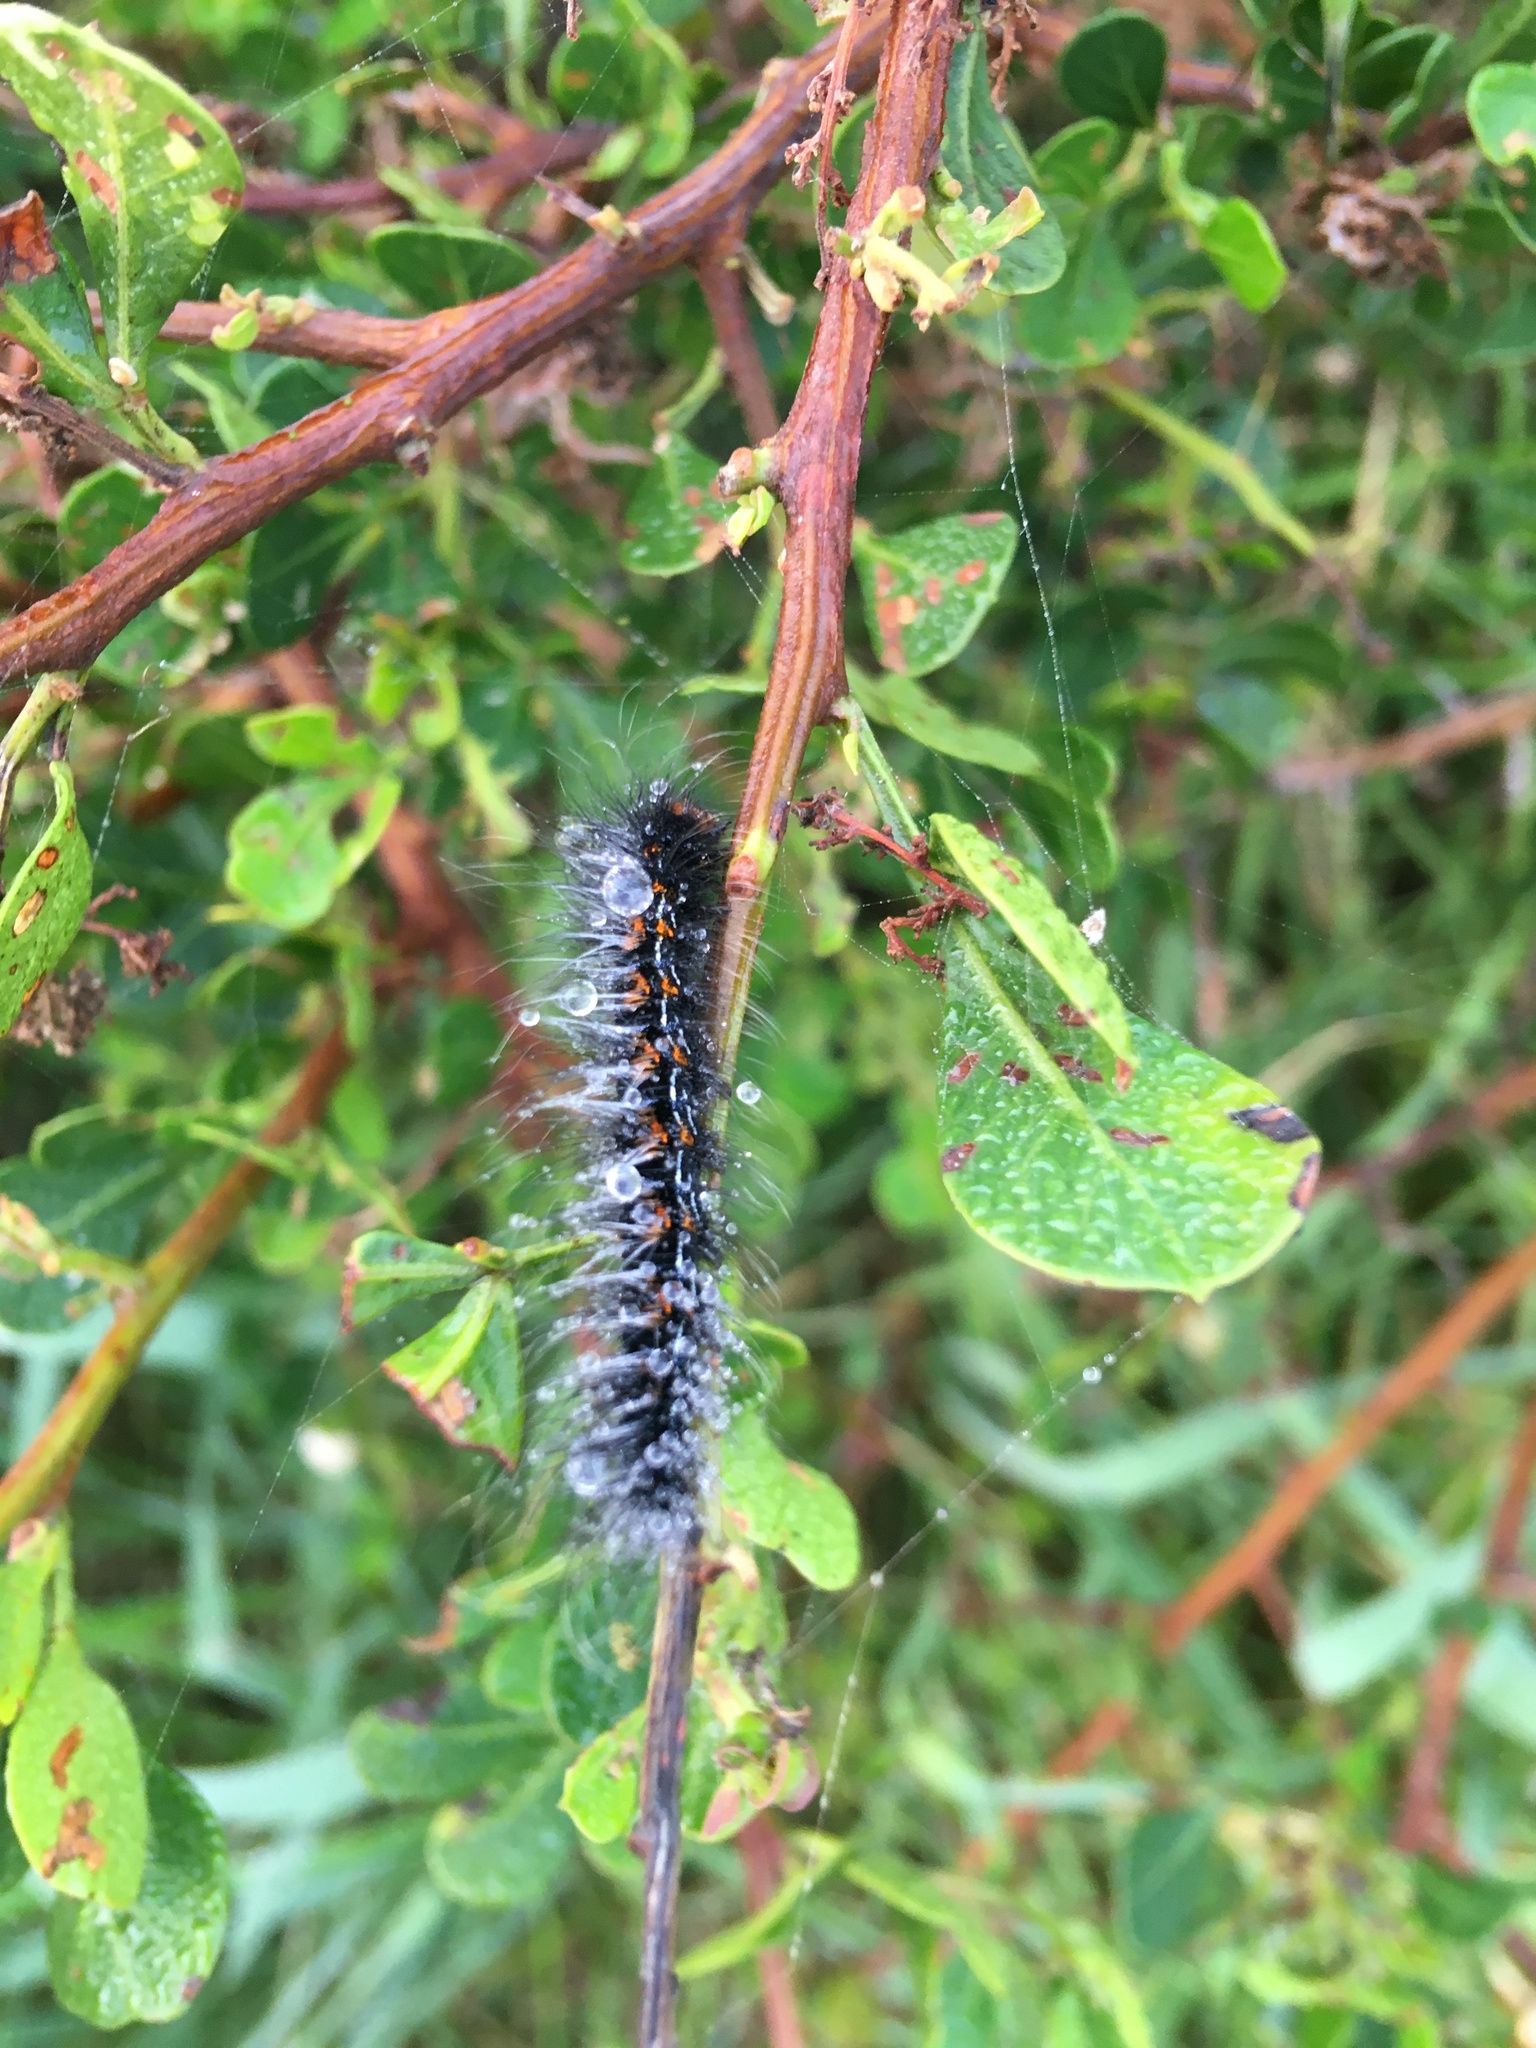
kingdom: Animalia
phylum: Arthropoda
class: Insecta
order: Lepidoptera
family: Lasiocampidae
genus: Mesocelis
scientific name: Mesocelis monticola
